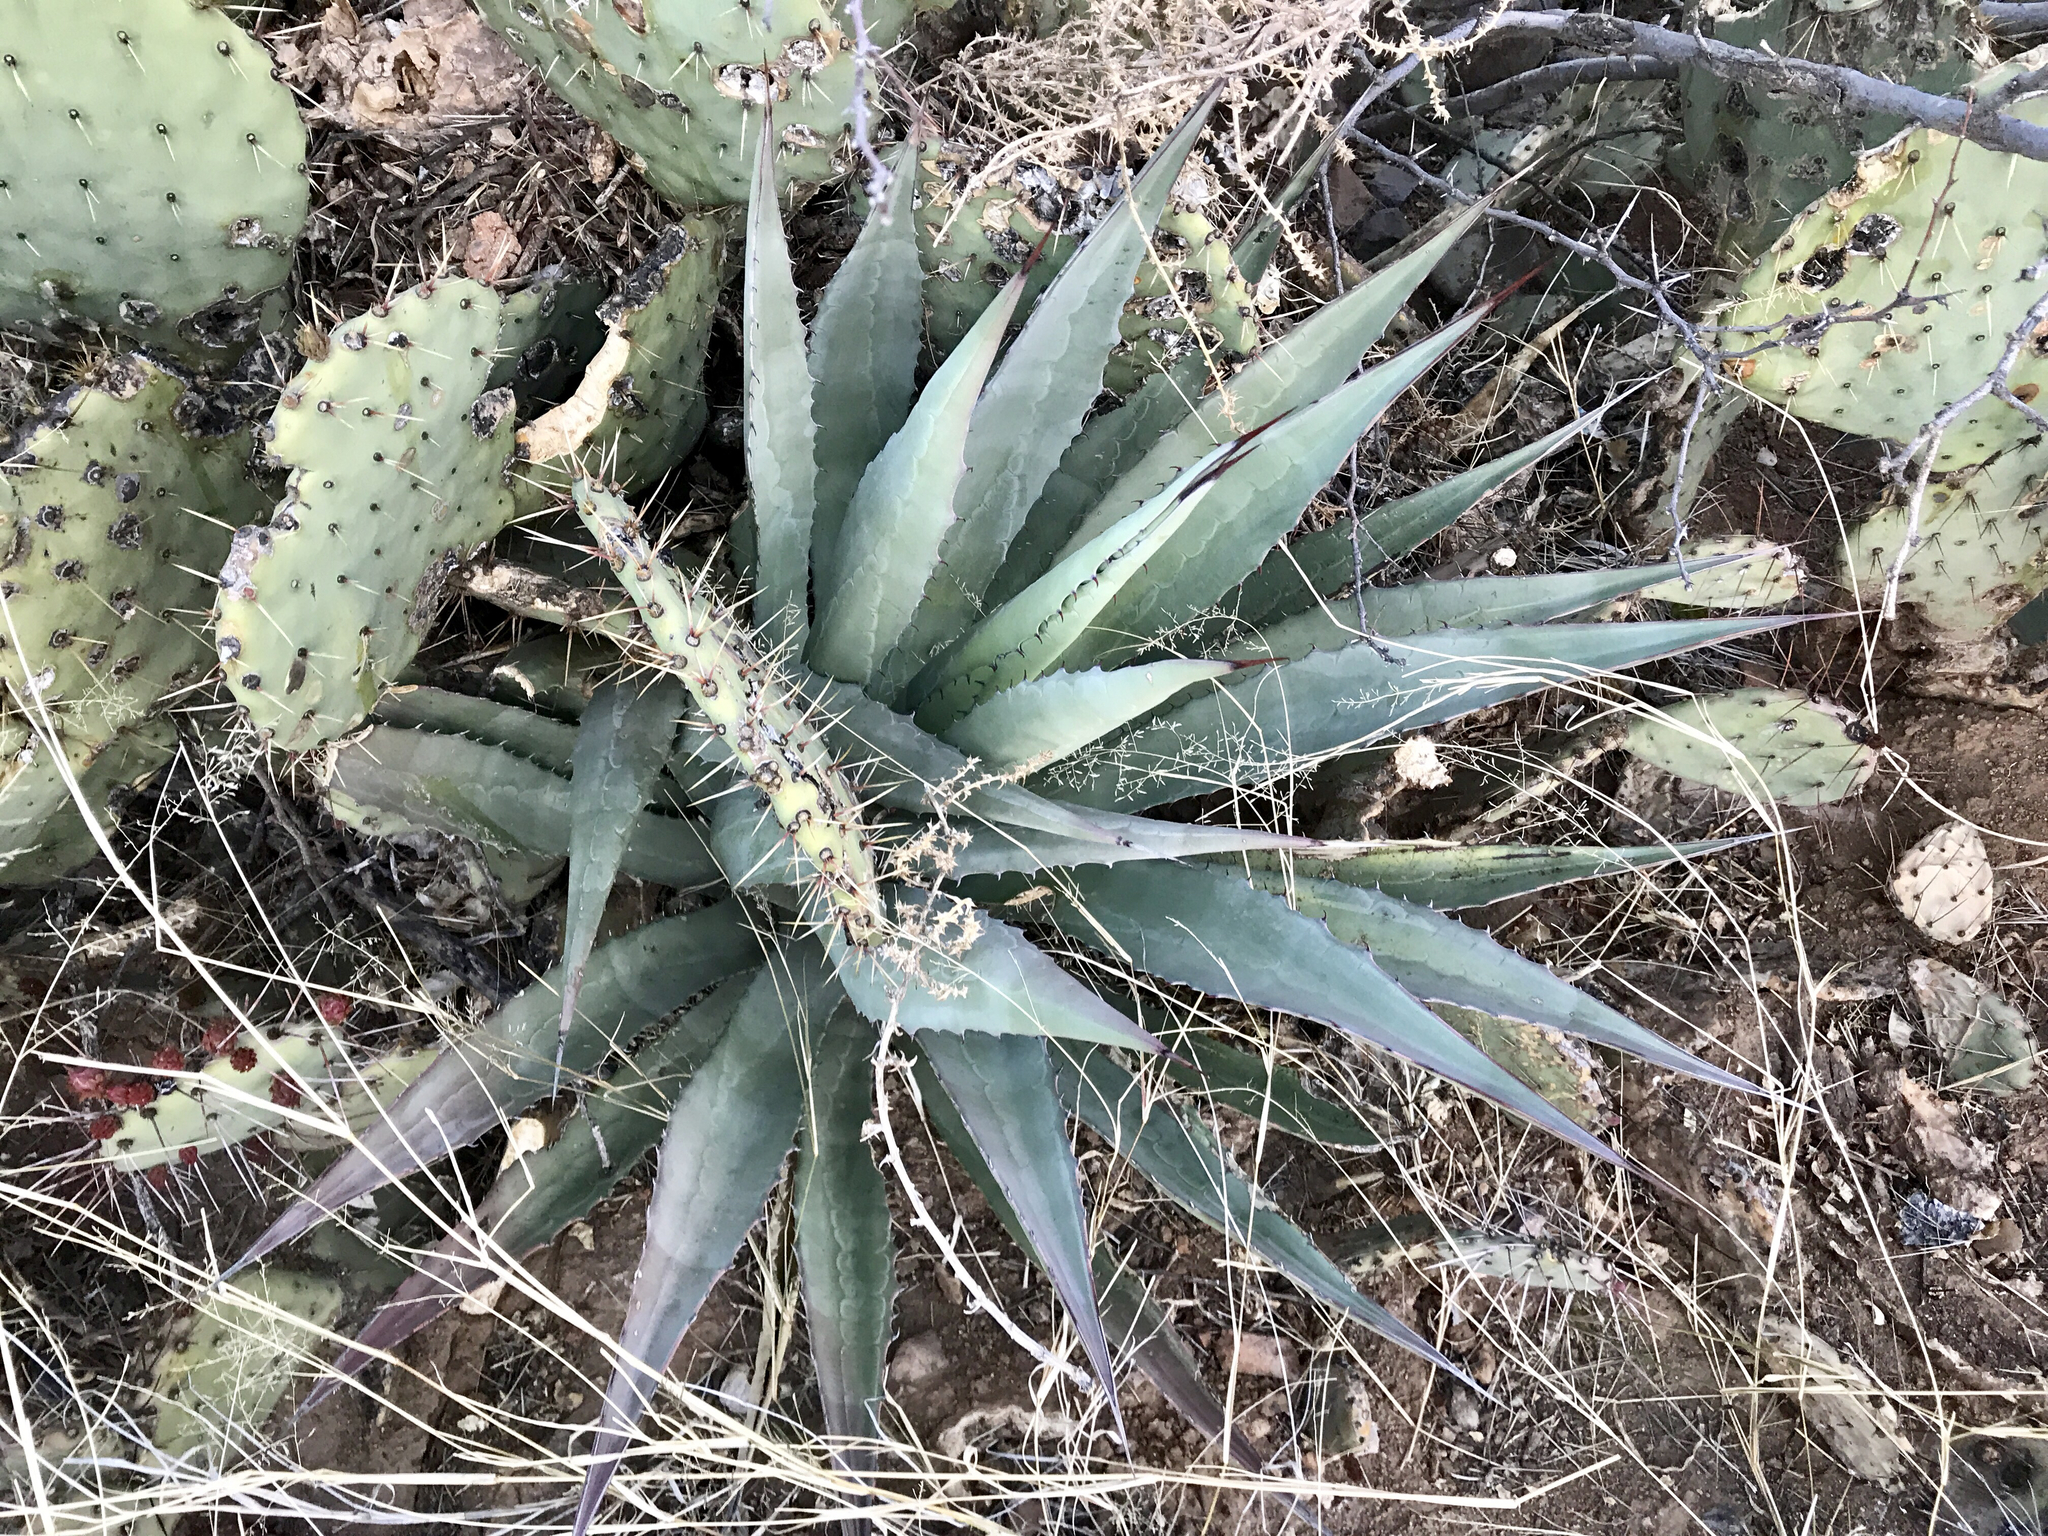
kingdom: Plantae
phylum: Tracheophyta
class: Liliopsida
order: Asparagales
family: Asparagaceae
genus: Agave
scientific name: Agave palmeri
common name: Palmer agave
